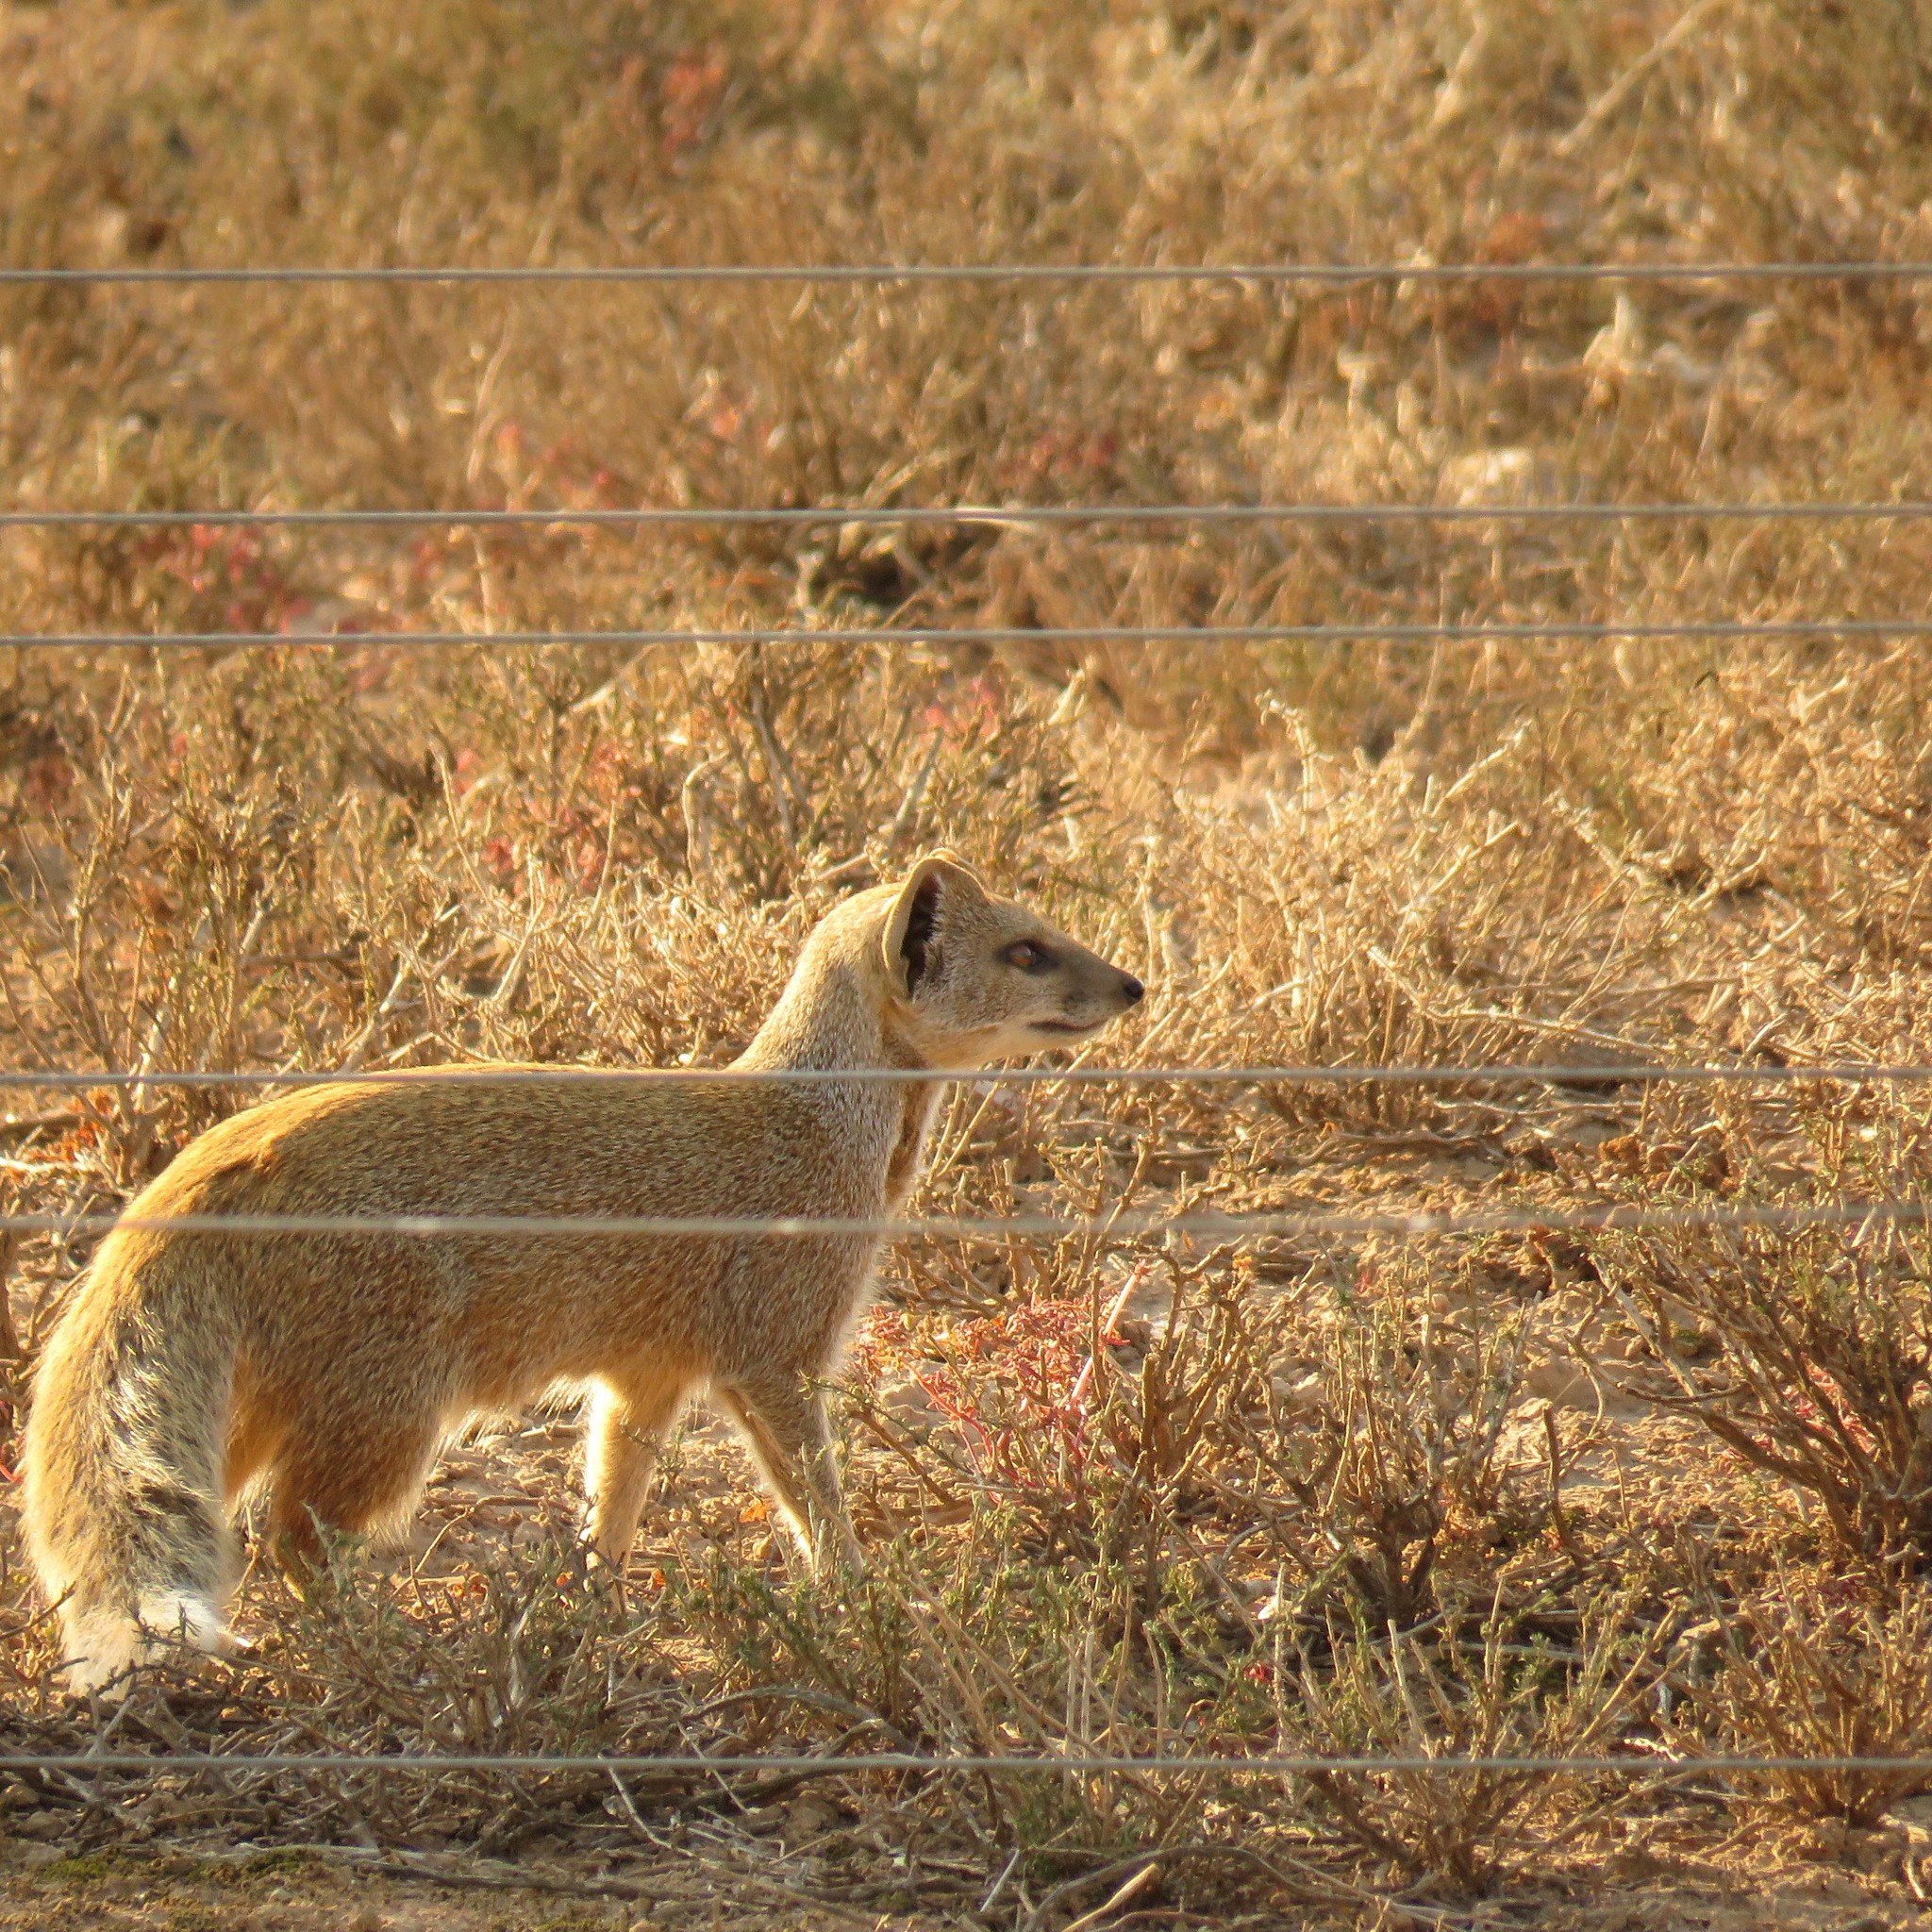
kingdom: Animalia
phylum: Chordata
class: Mammalia
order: Carnivora
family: Herpestidae
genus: Cynictis
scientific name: Cynictis penicillata
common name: Yellow mongoose
